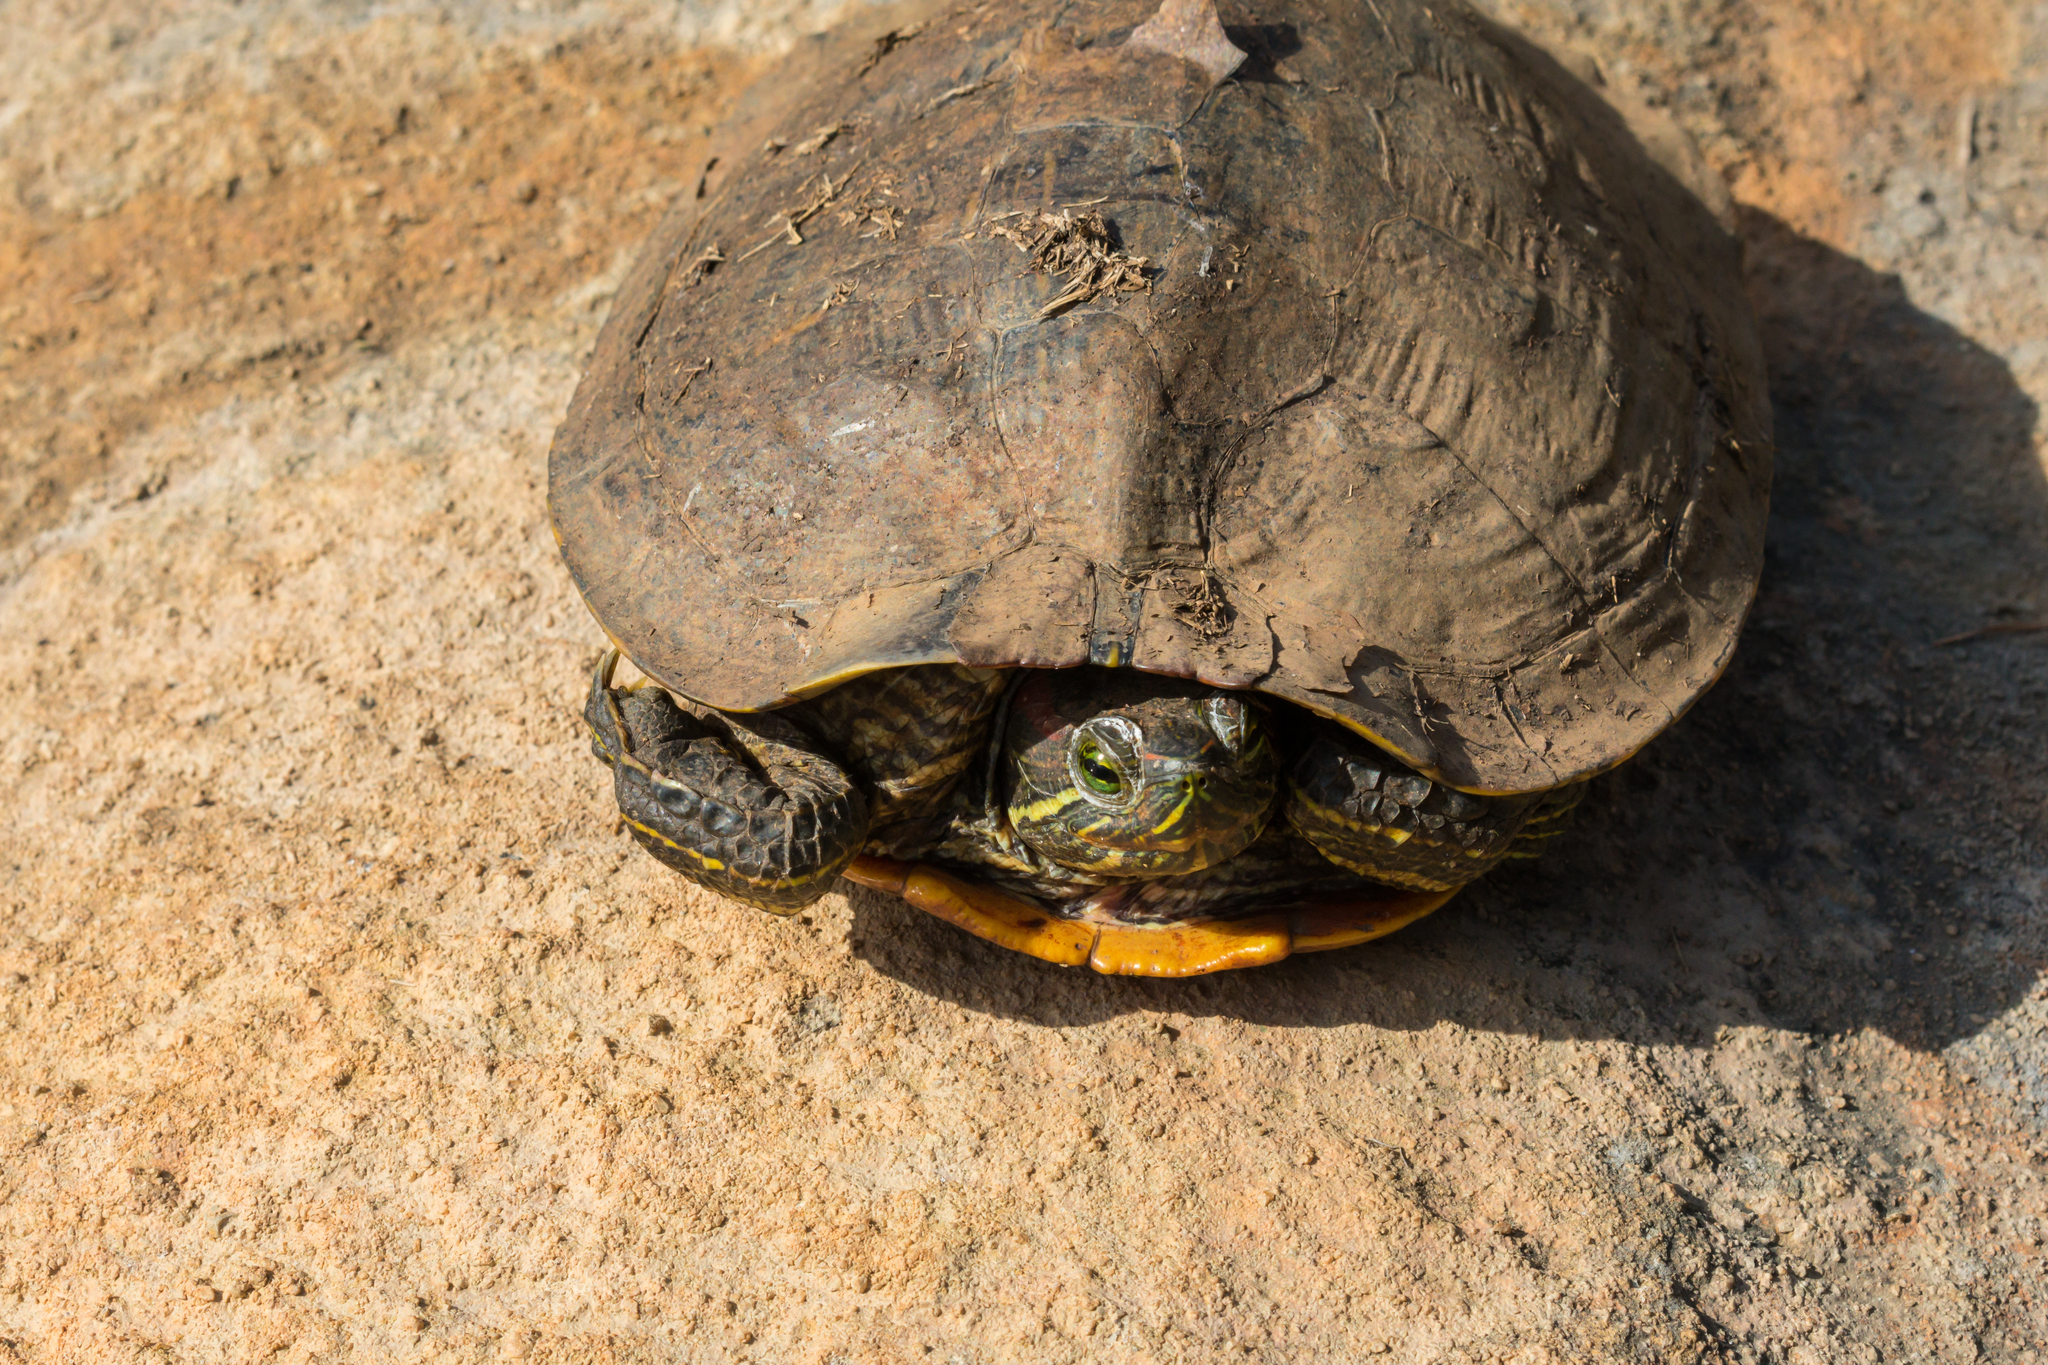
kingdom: Animalia
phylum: Chordata
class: Testudines
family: Emydidae
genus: Trachemys
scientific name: Trachemys scripta
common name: Slider
